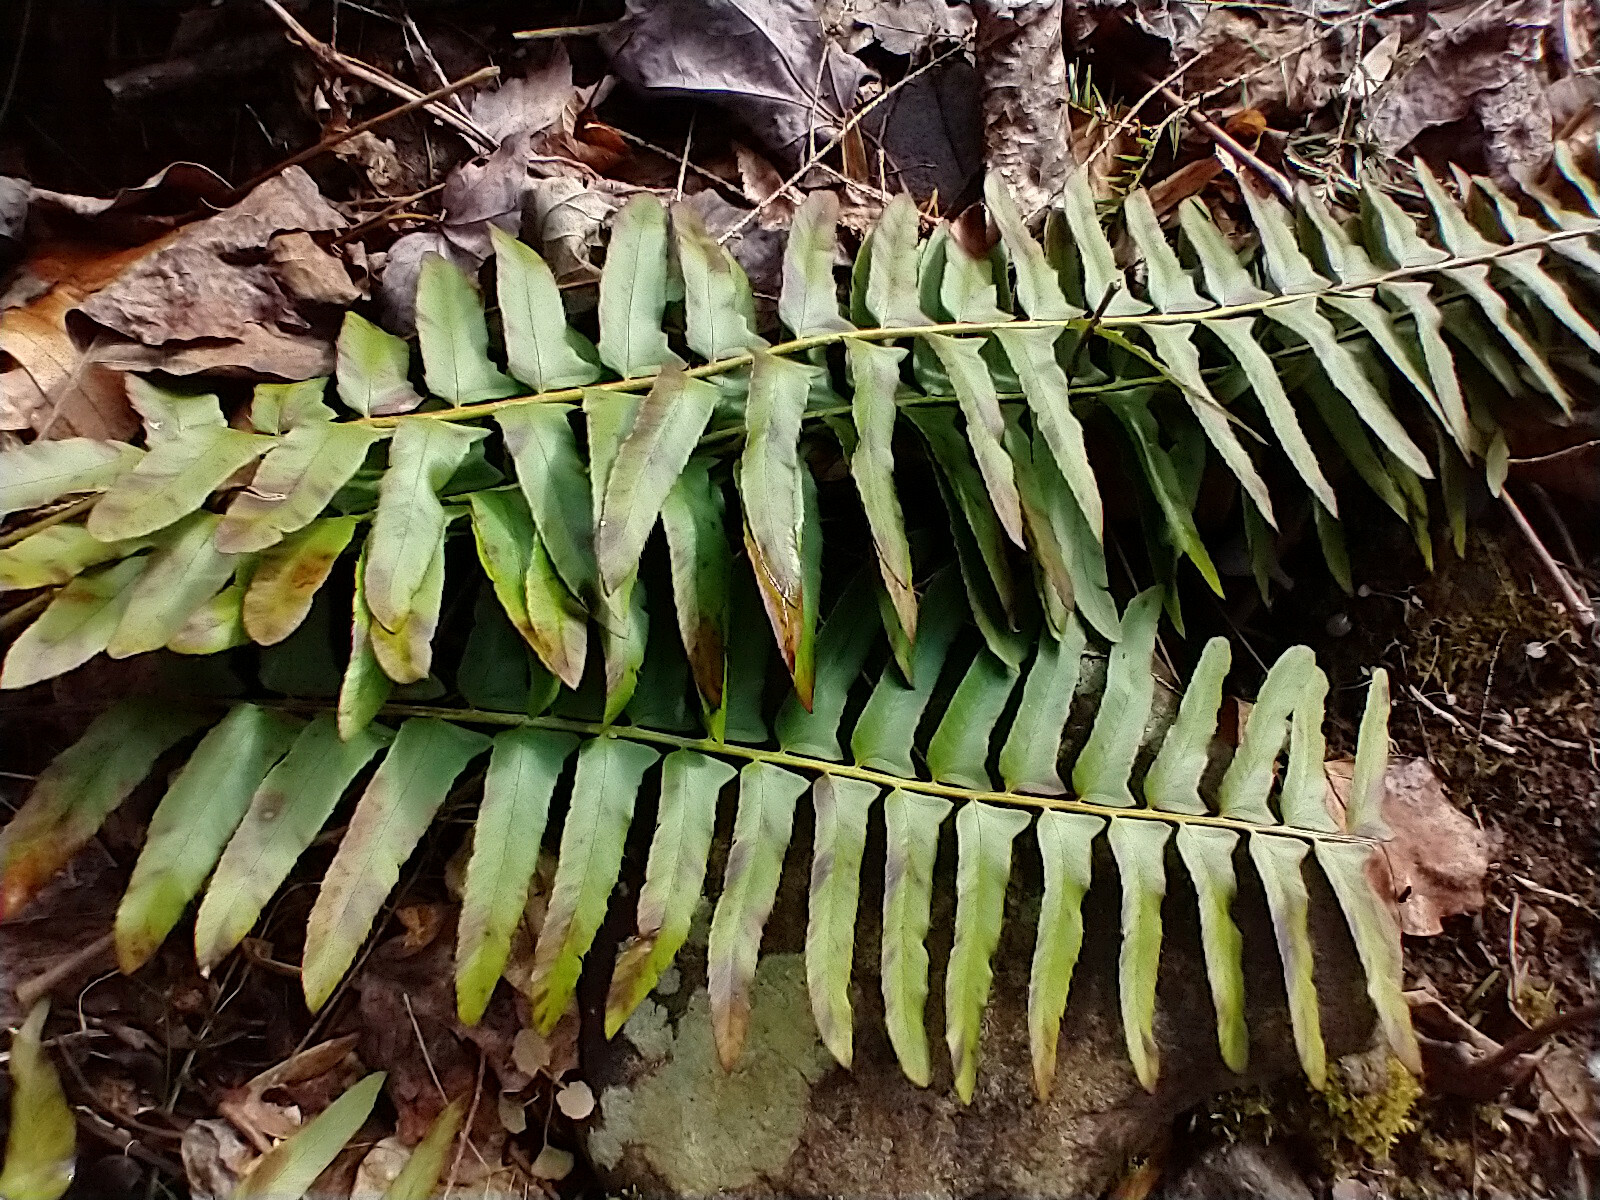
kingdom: Plantae
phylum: Tracheophyta
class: Polypodiopsida
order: Polypodiales
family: Dryopteridaceae
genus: Polystichum
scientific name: Polystichum acrostichoides
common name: Christmas fern
